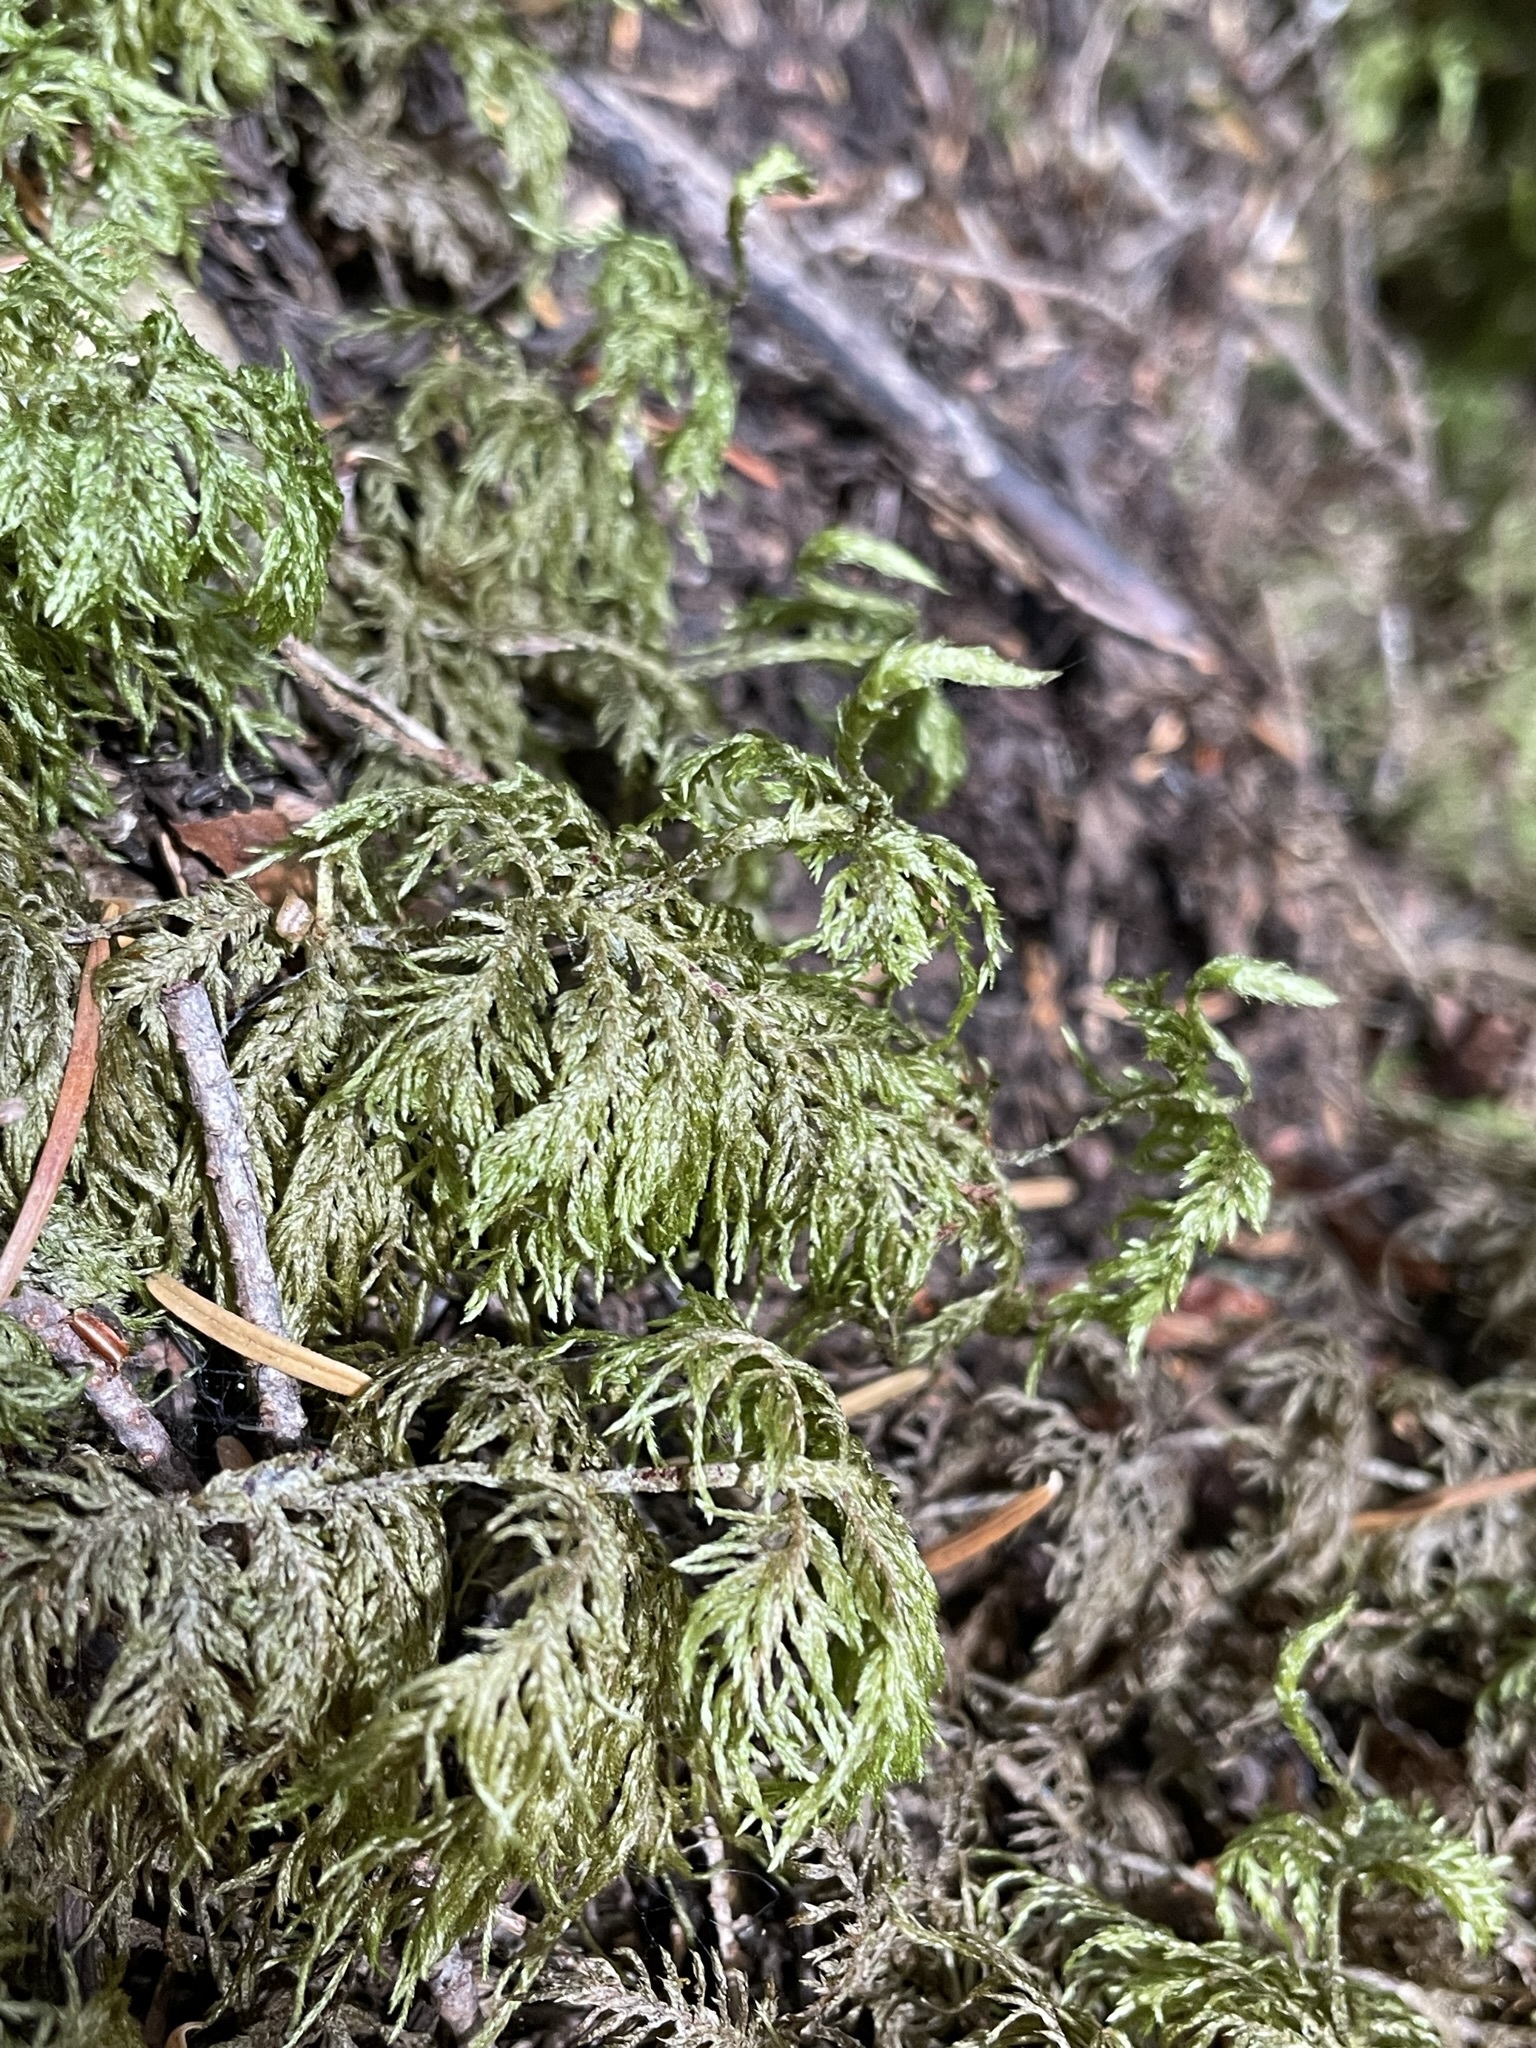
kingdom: Plantae
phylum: Bryophyta
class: Bryopsida
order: Hypnales
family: Hylocomiaceae
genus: Hylocomium
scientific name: Hylocomium splendens
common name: Stairstep moss
